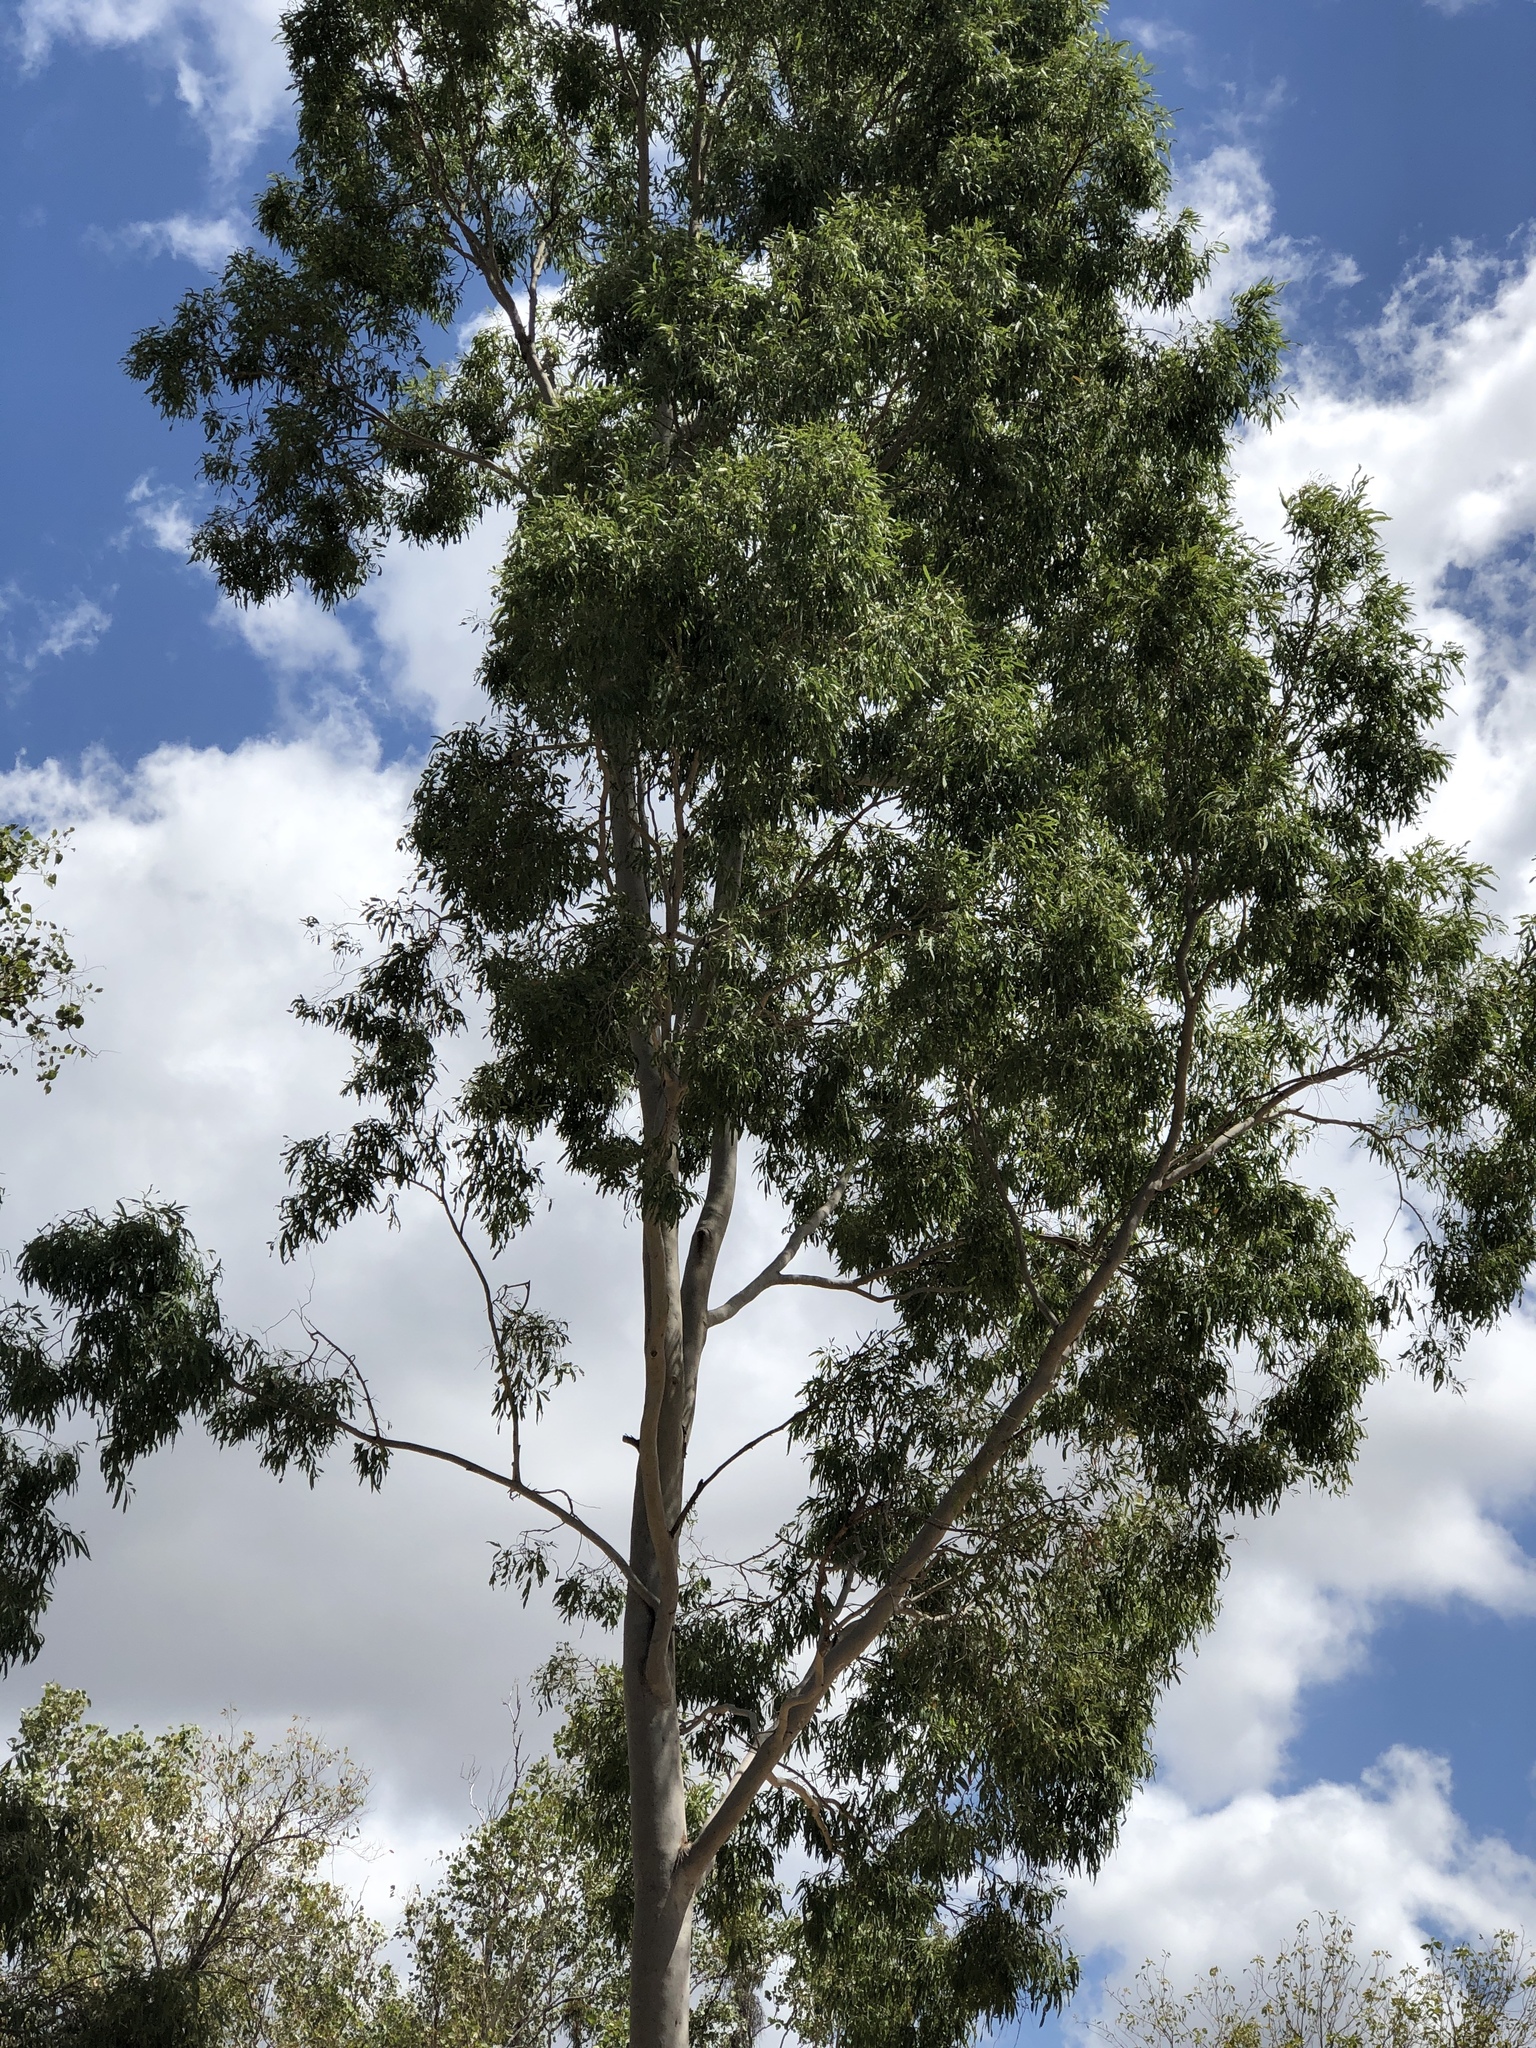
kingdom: Plantae
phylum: Tracheophyta
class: Magnoliopsida
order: Myrtales
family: Myrtaceae
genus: Corymbia
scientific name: Corymbia tessellaris
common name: Carbeen
